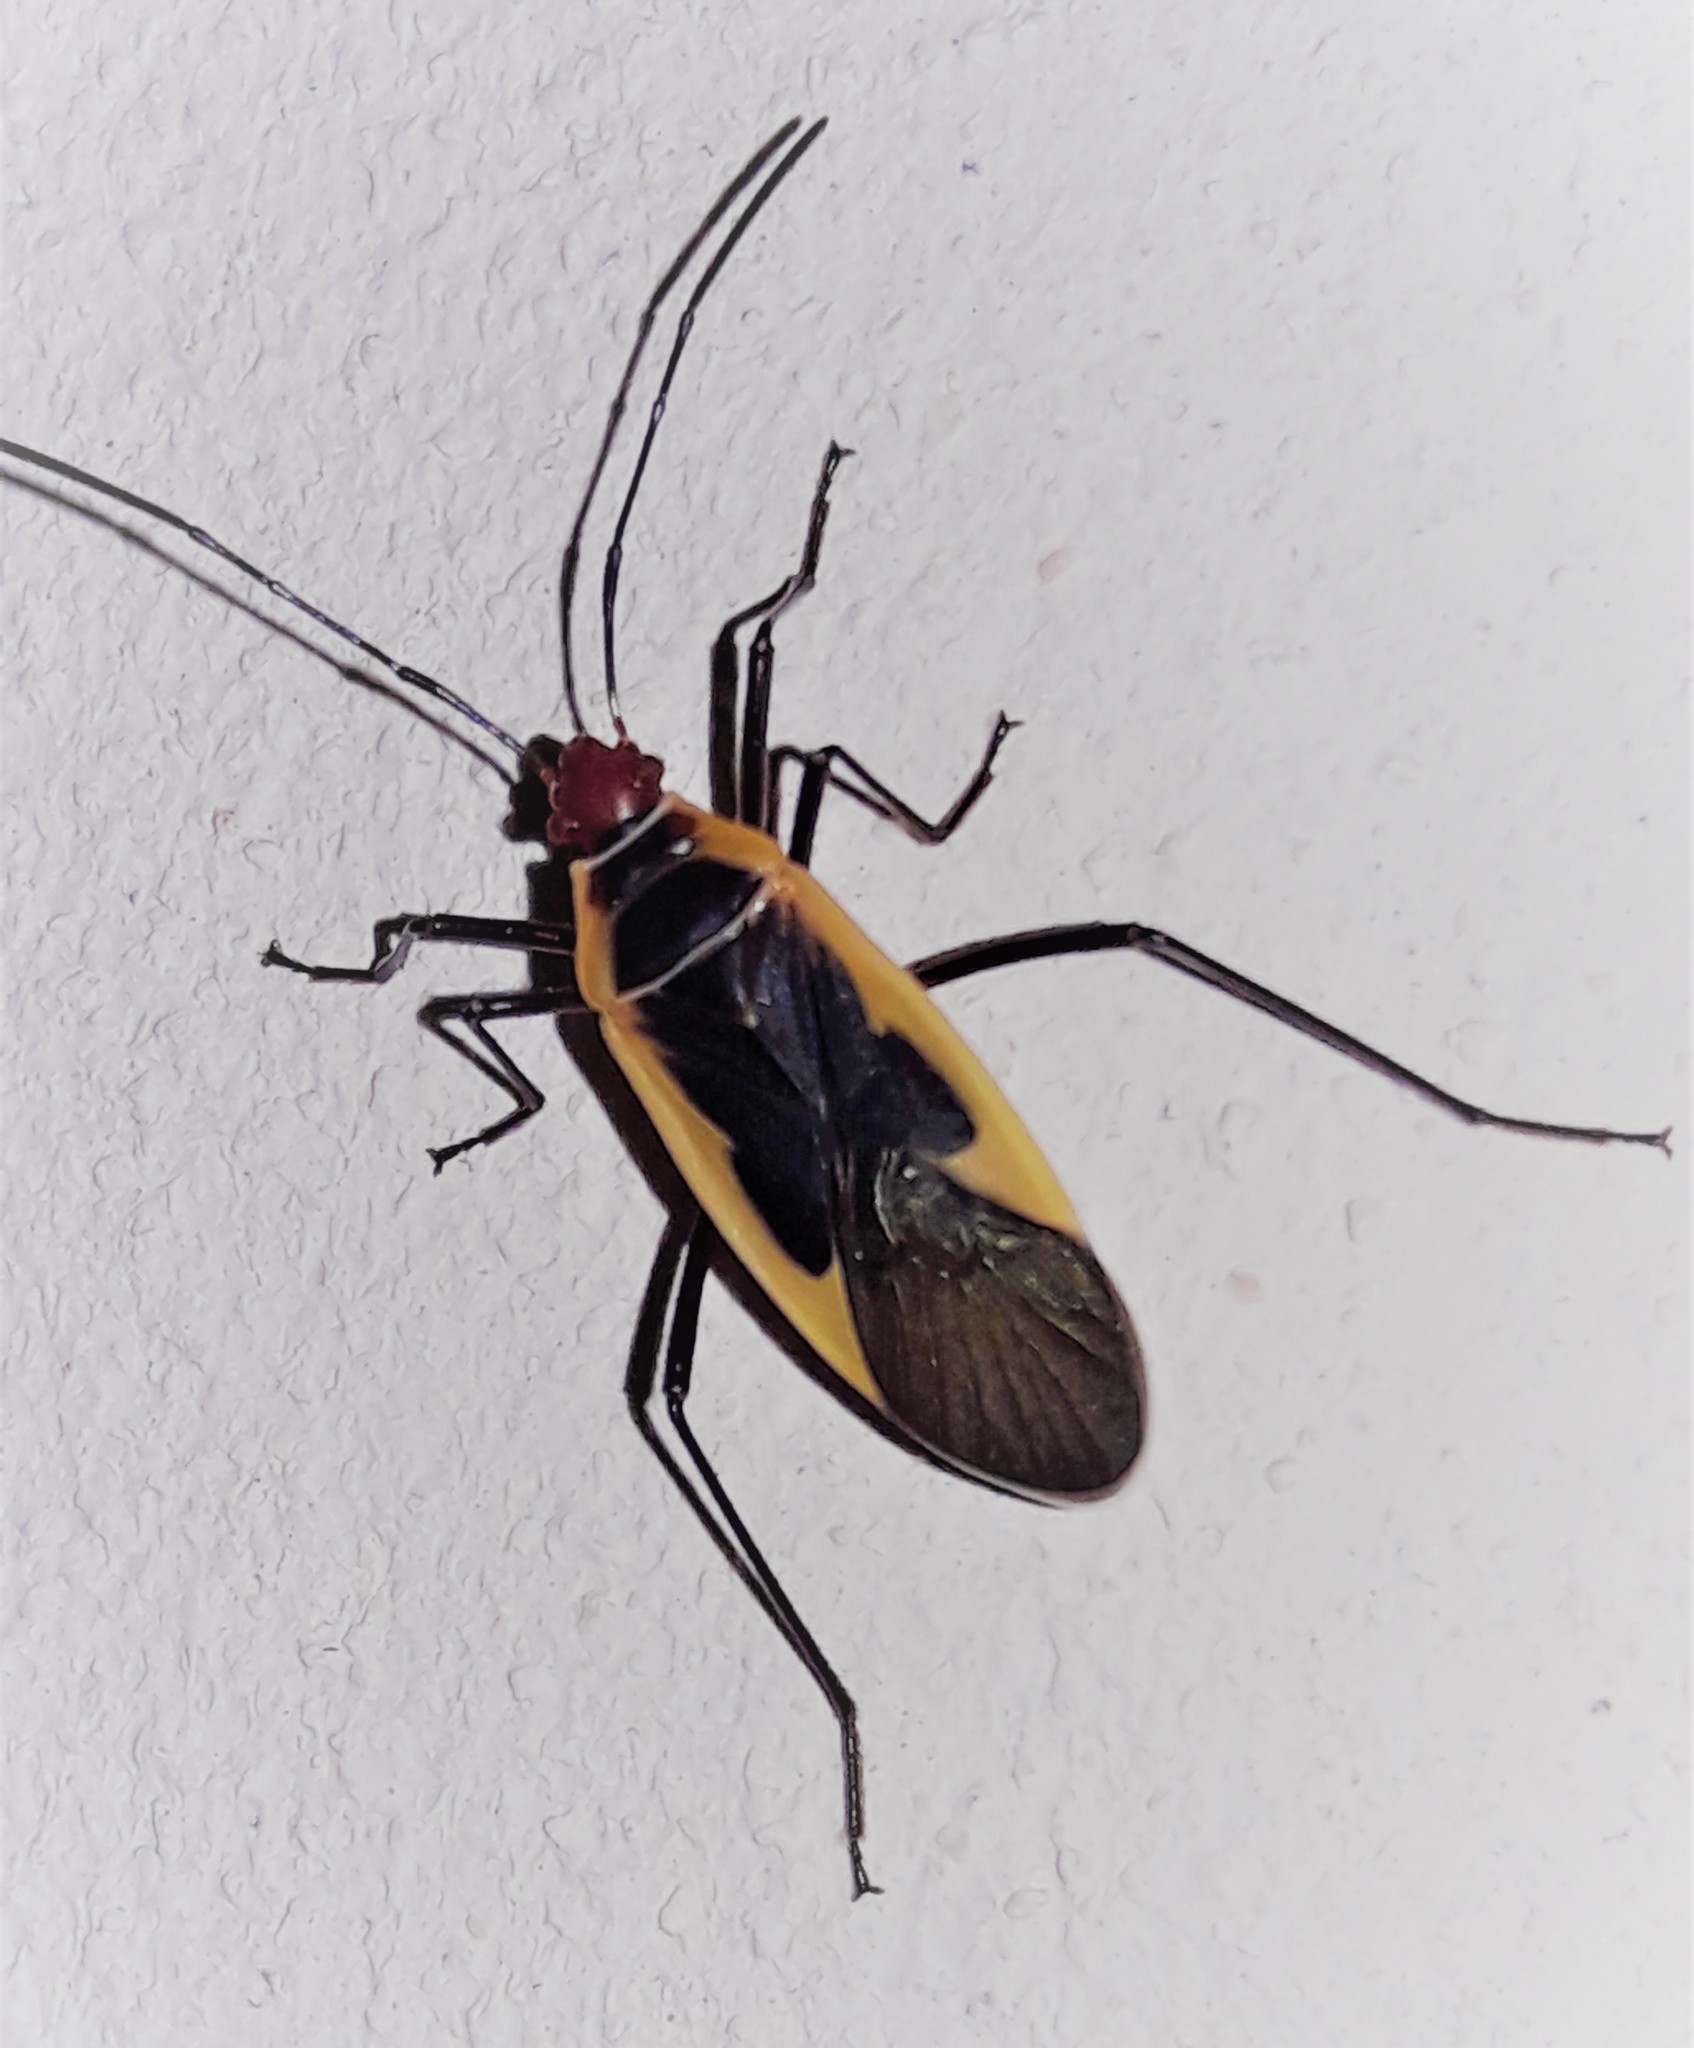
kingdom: Animalia
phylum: Arthropoda
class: Insecta
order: Hemiptera
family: Pyrrhocoridae
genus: Dysdercus
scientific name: Dysdercus mimulus
